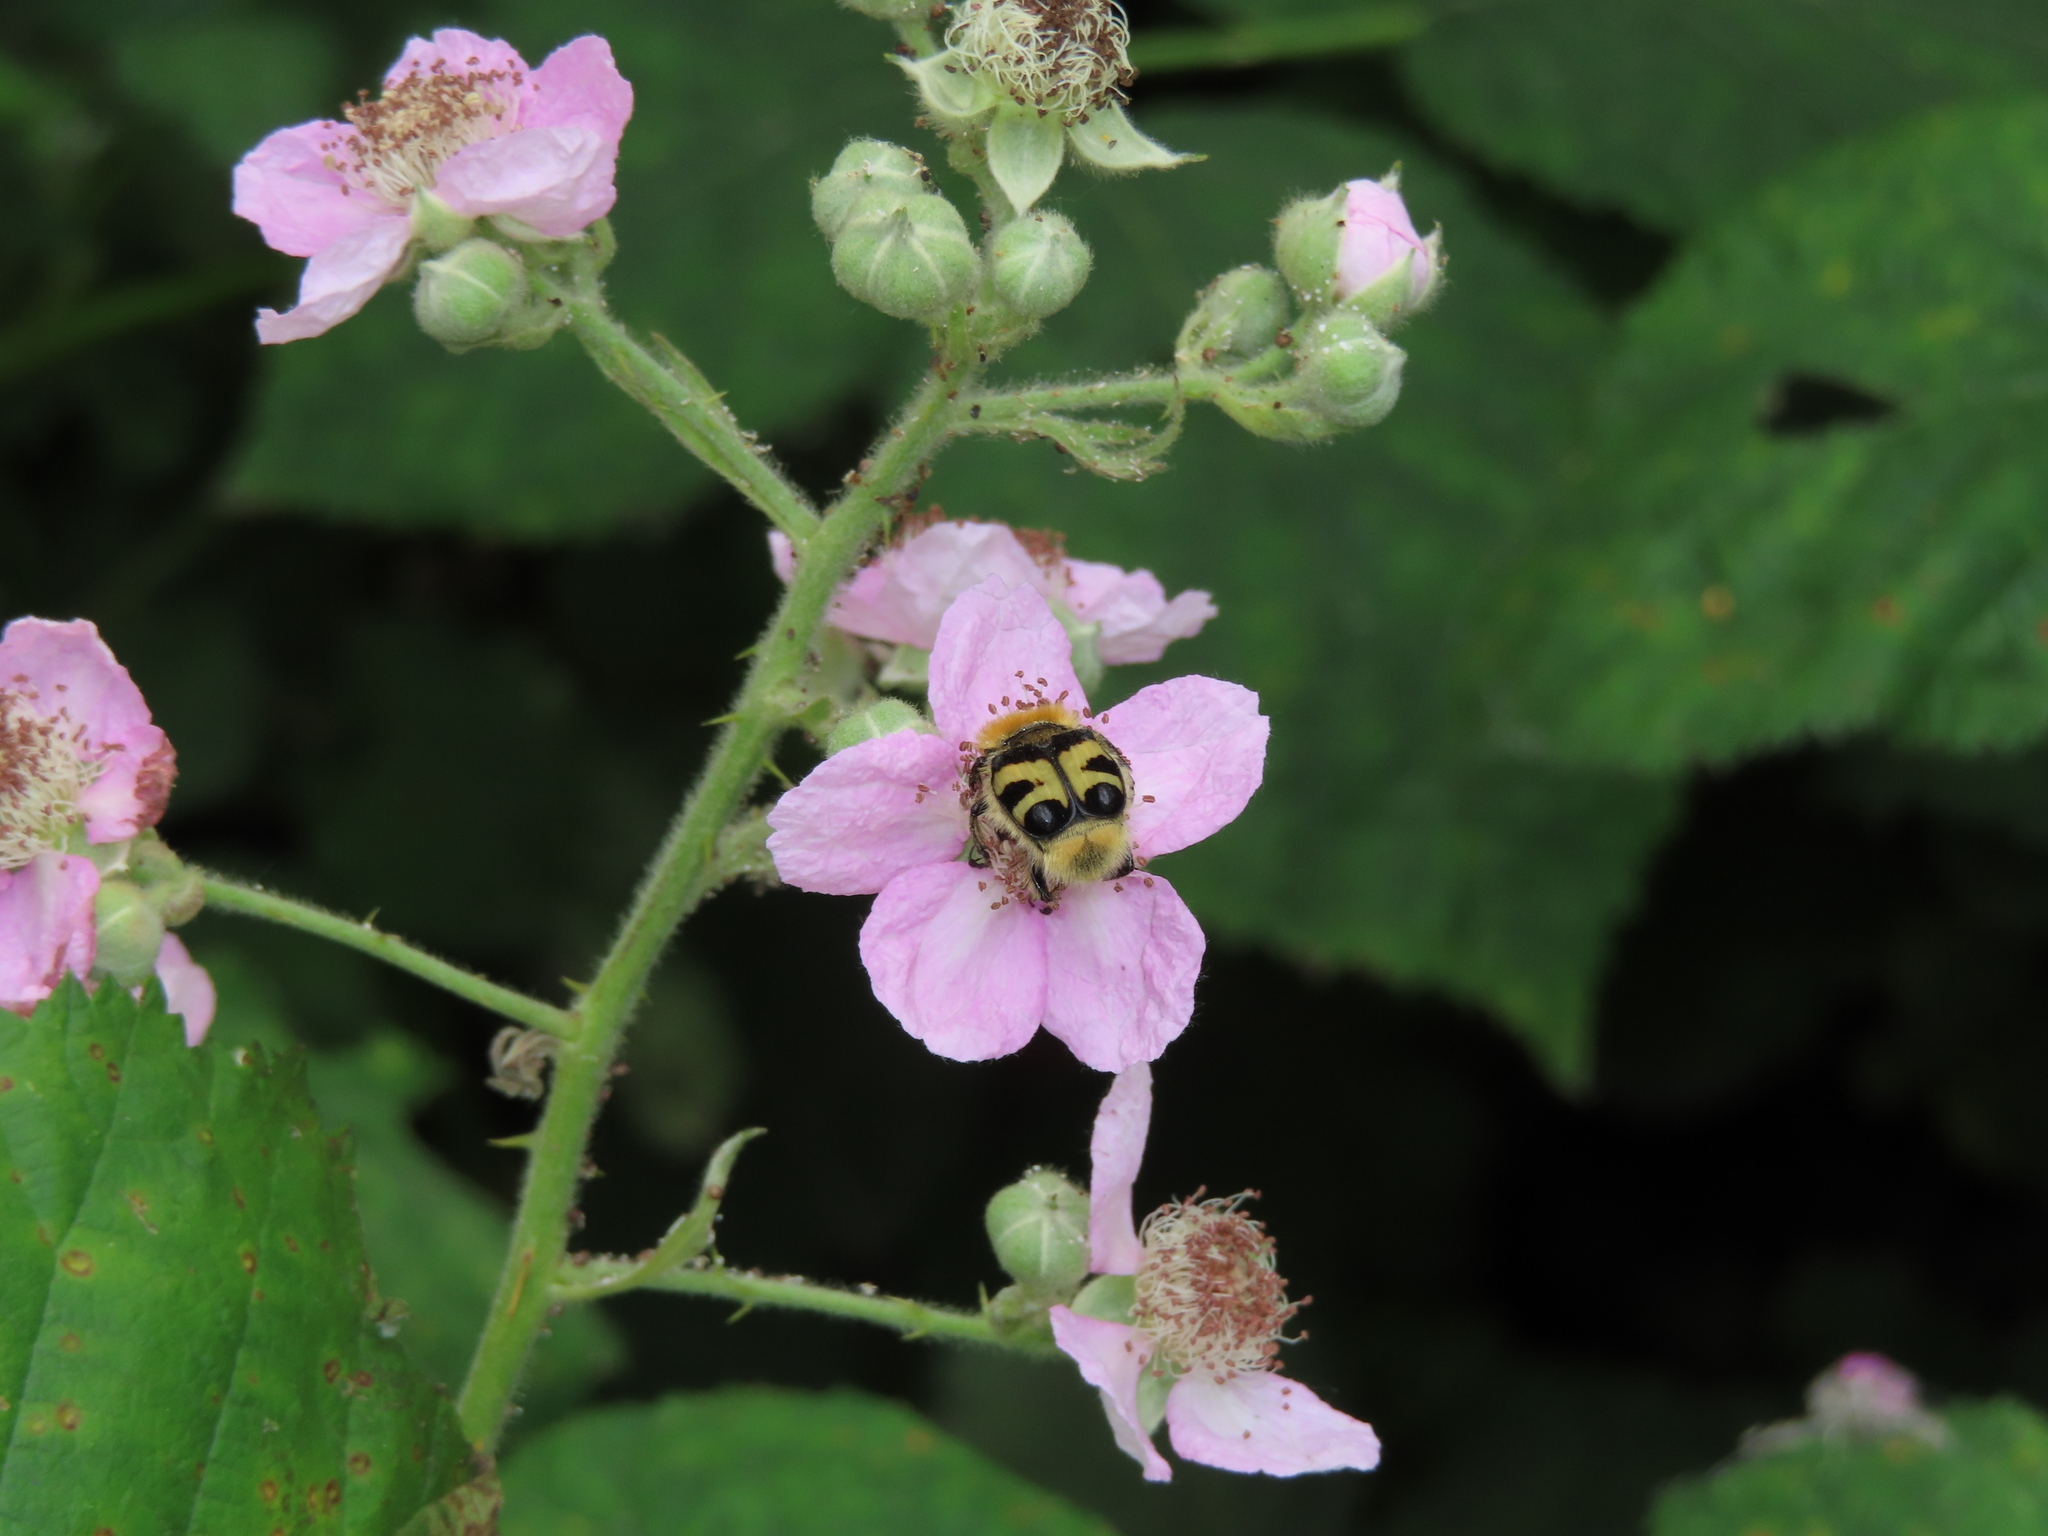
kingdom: Animalia
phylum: Arthropoda
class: Insecta
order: Coleoptera
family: Scarabaeidae
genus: Trichius
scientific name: Trichius fasciatus
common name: Bee beetle
